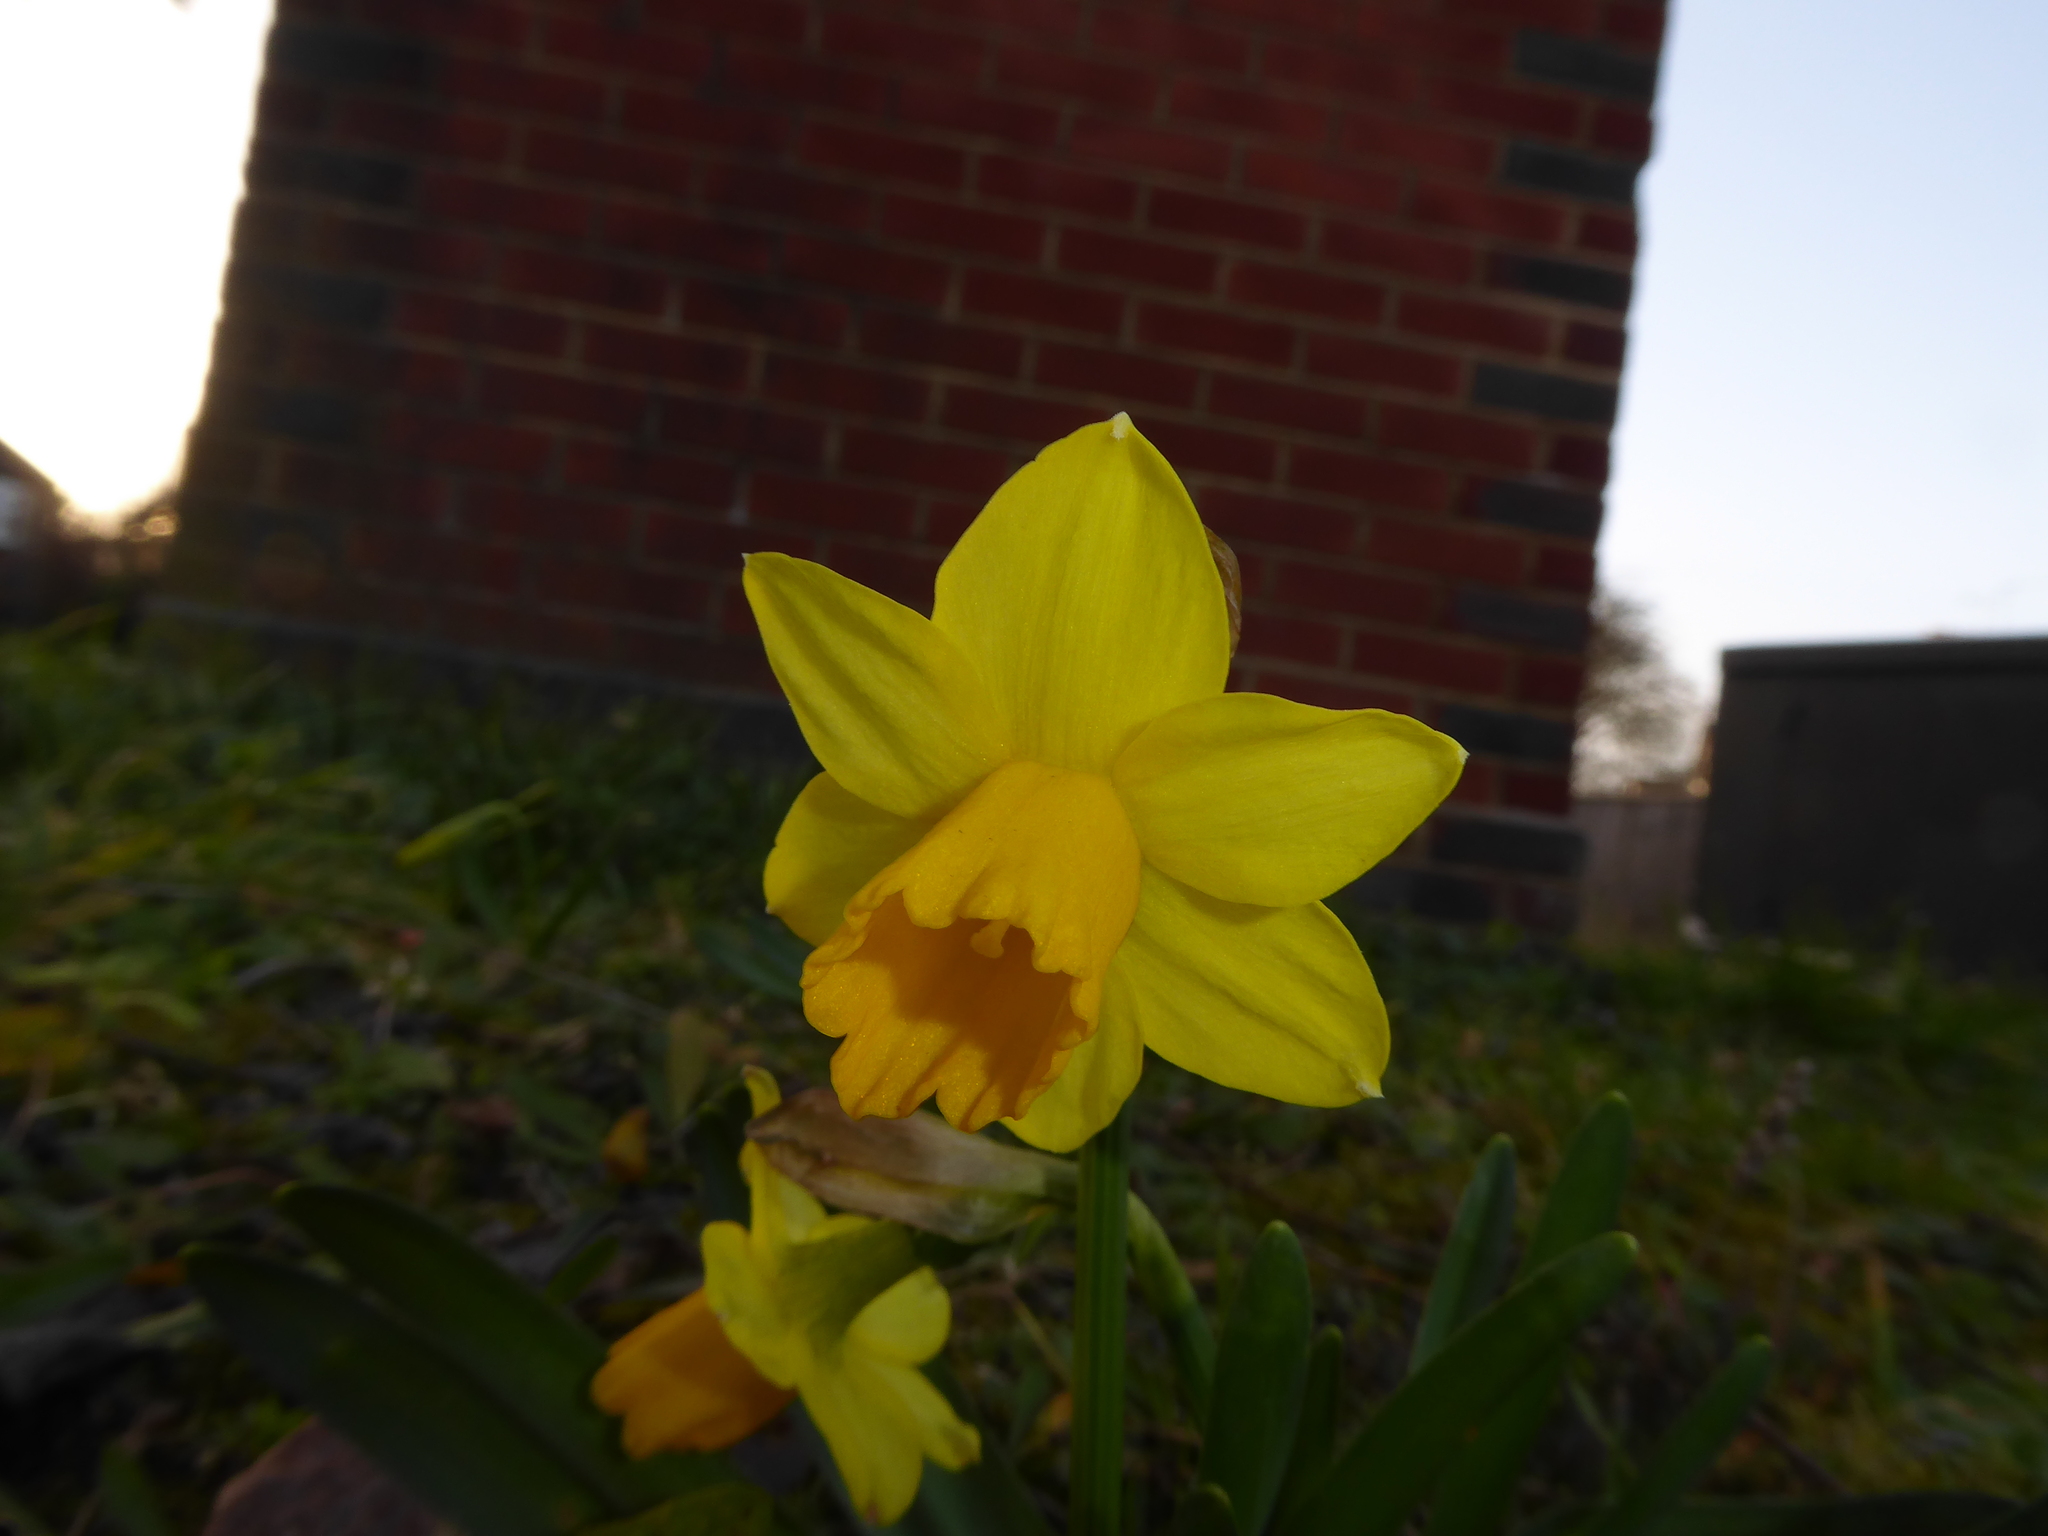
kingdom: Plantae
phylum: Tracheophyta
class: Liliopsida
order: Asparagales
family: Amaryllidaceae
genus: Narcissus
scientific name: Narcissus cyclazetta
